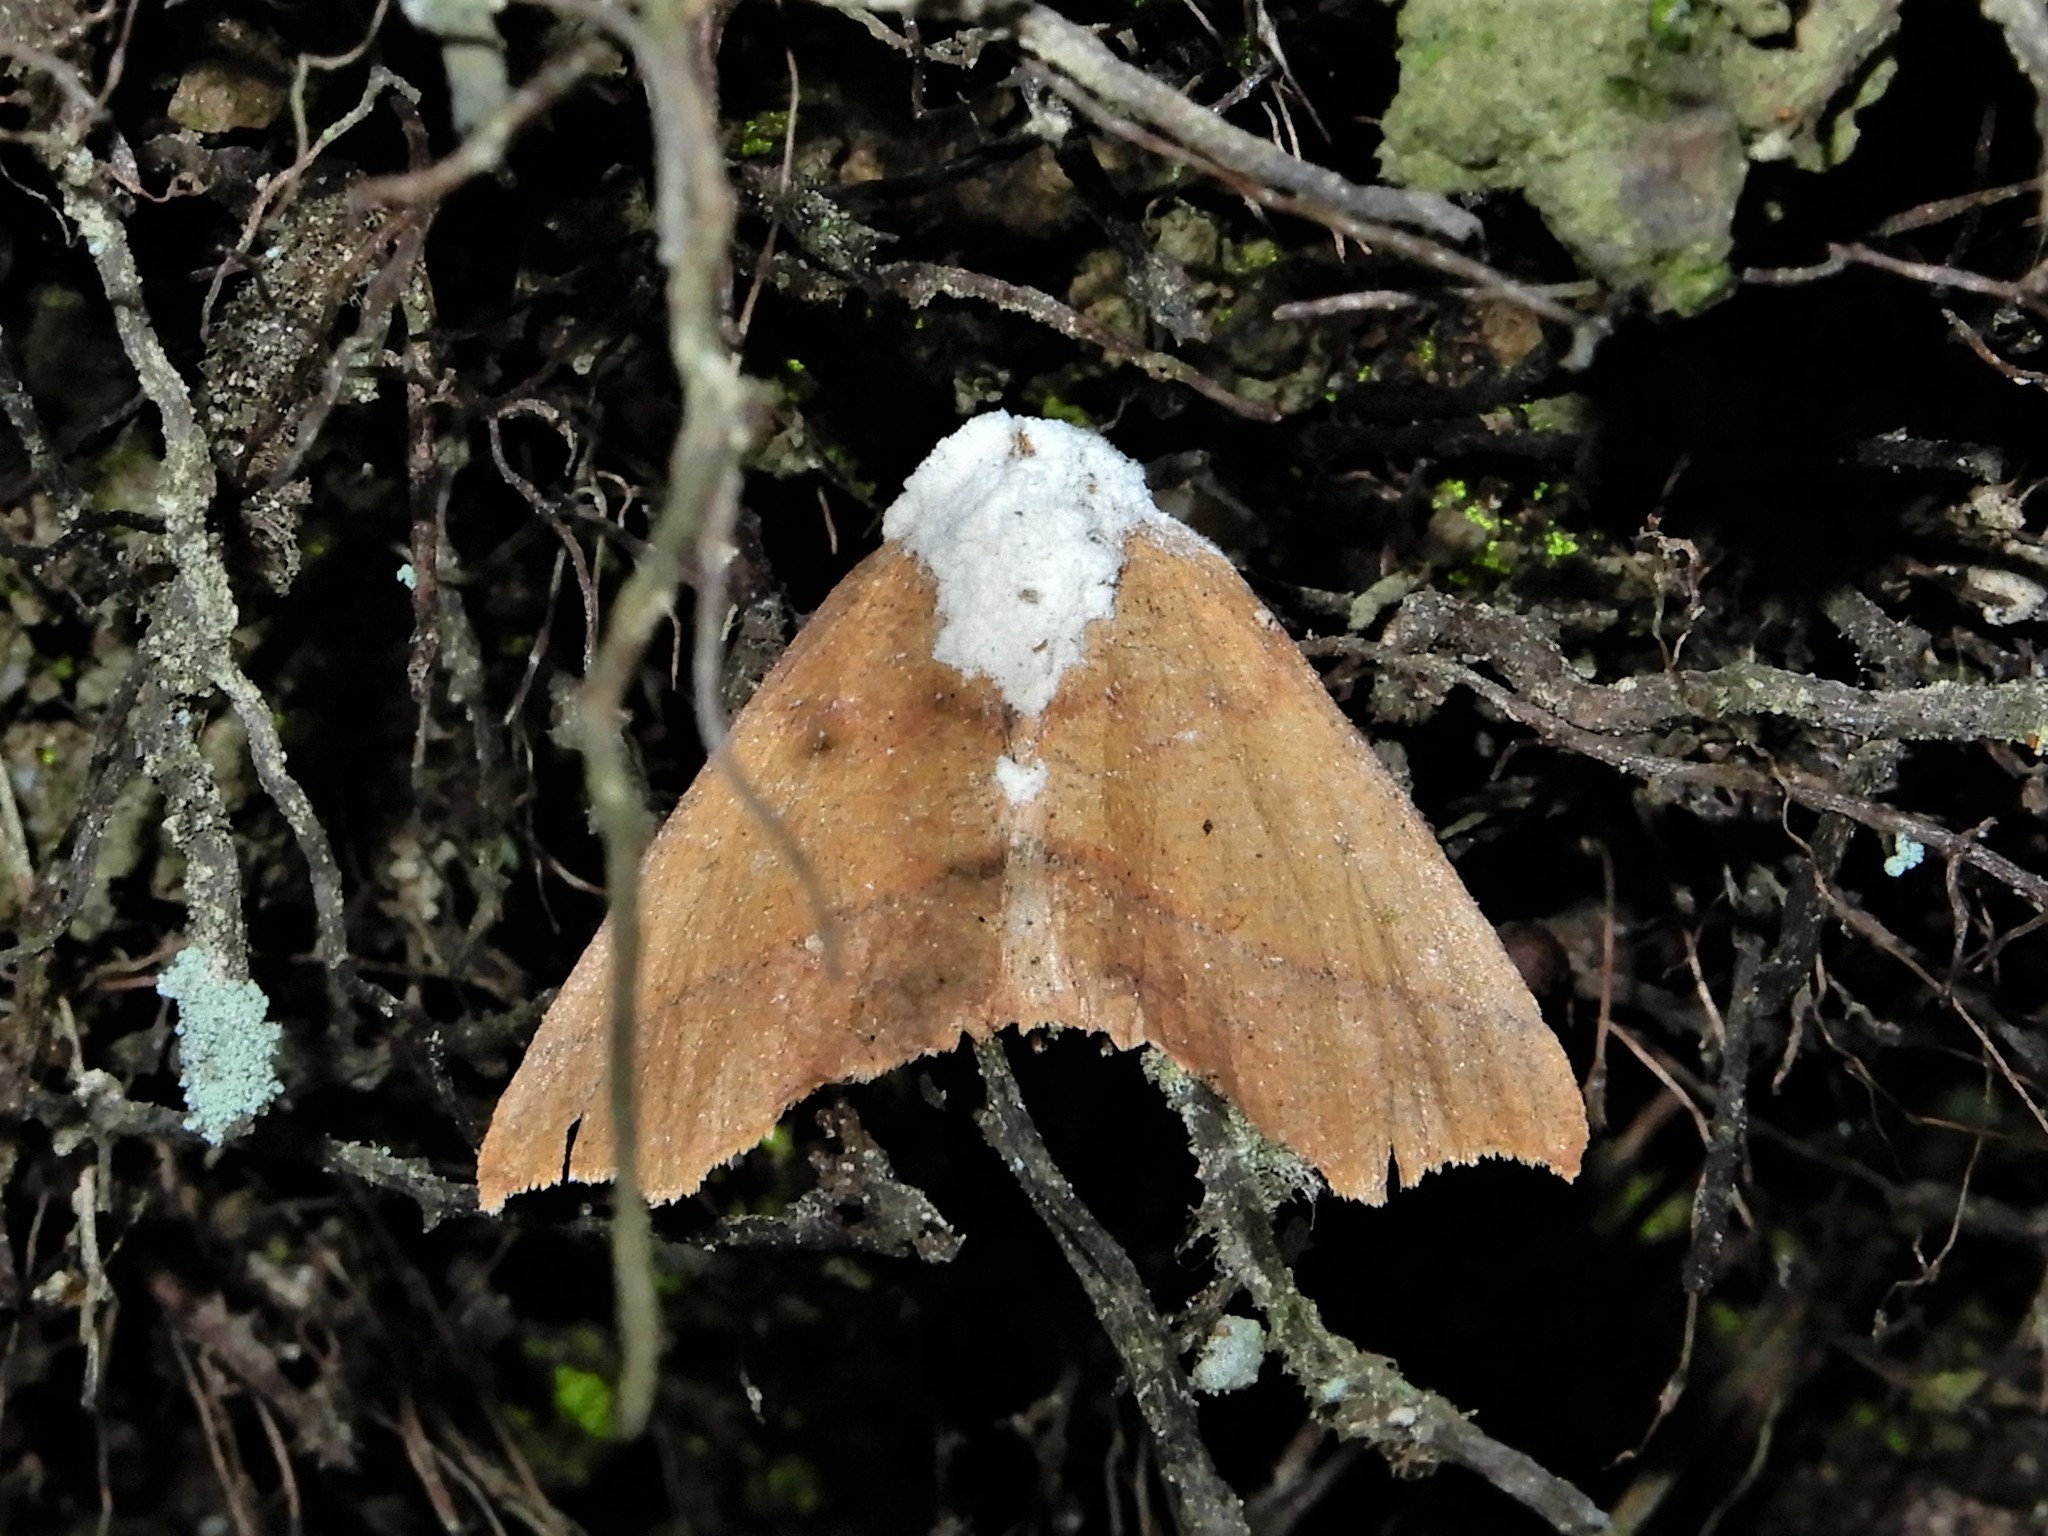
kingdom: Animalia
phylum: Arthropoda
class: Insecta
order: Lepidoptera
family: Geometridae
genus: Ischalis
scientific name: Ischalis nelsonaria
